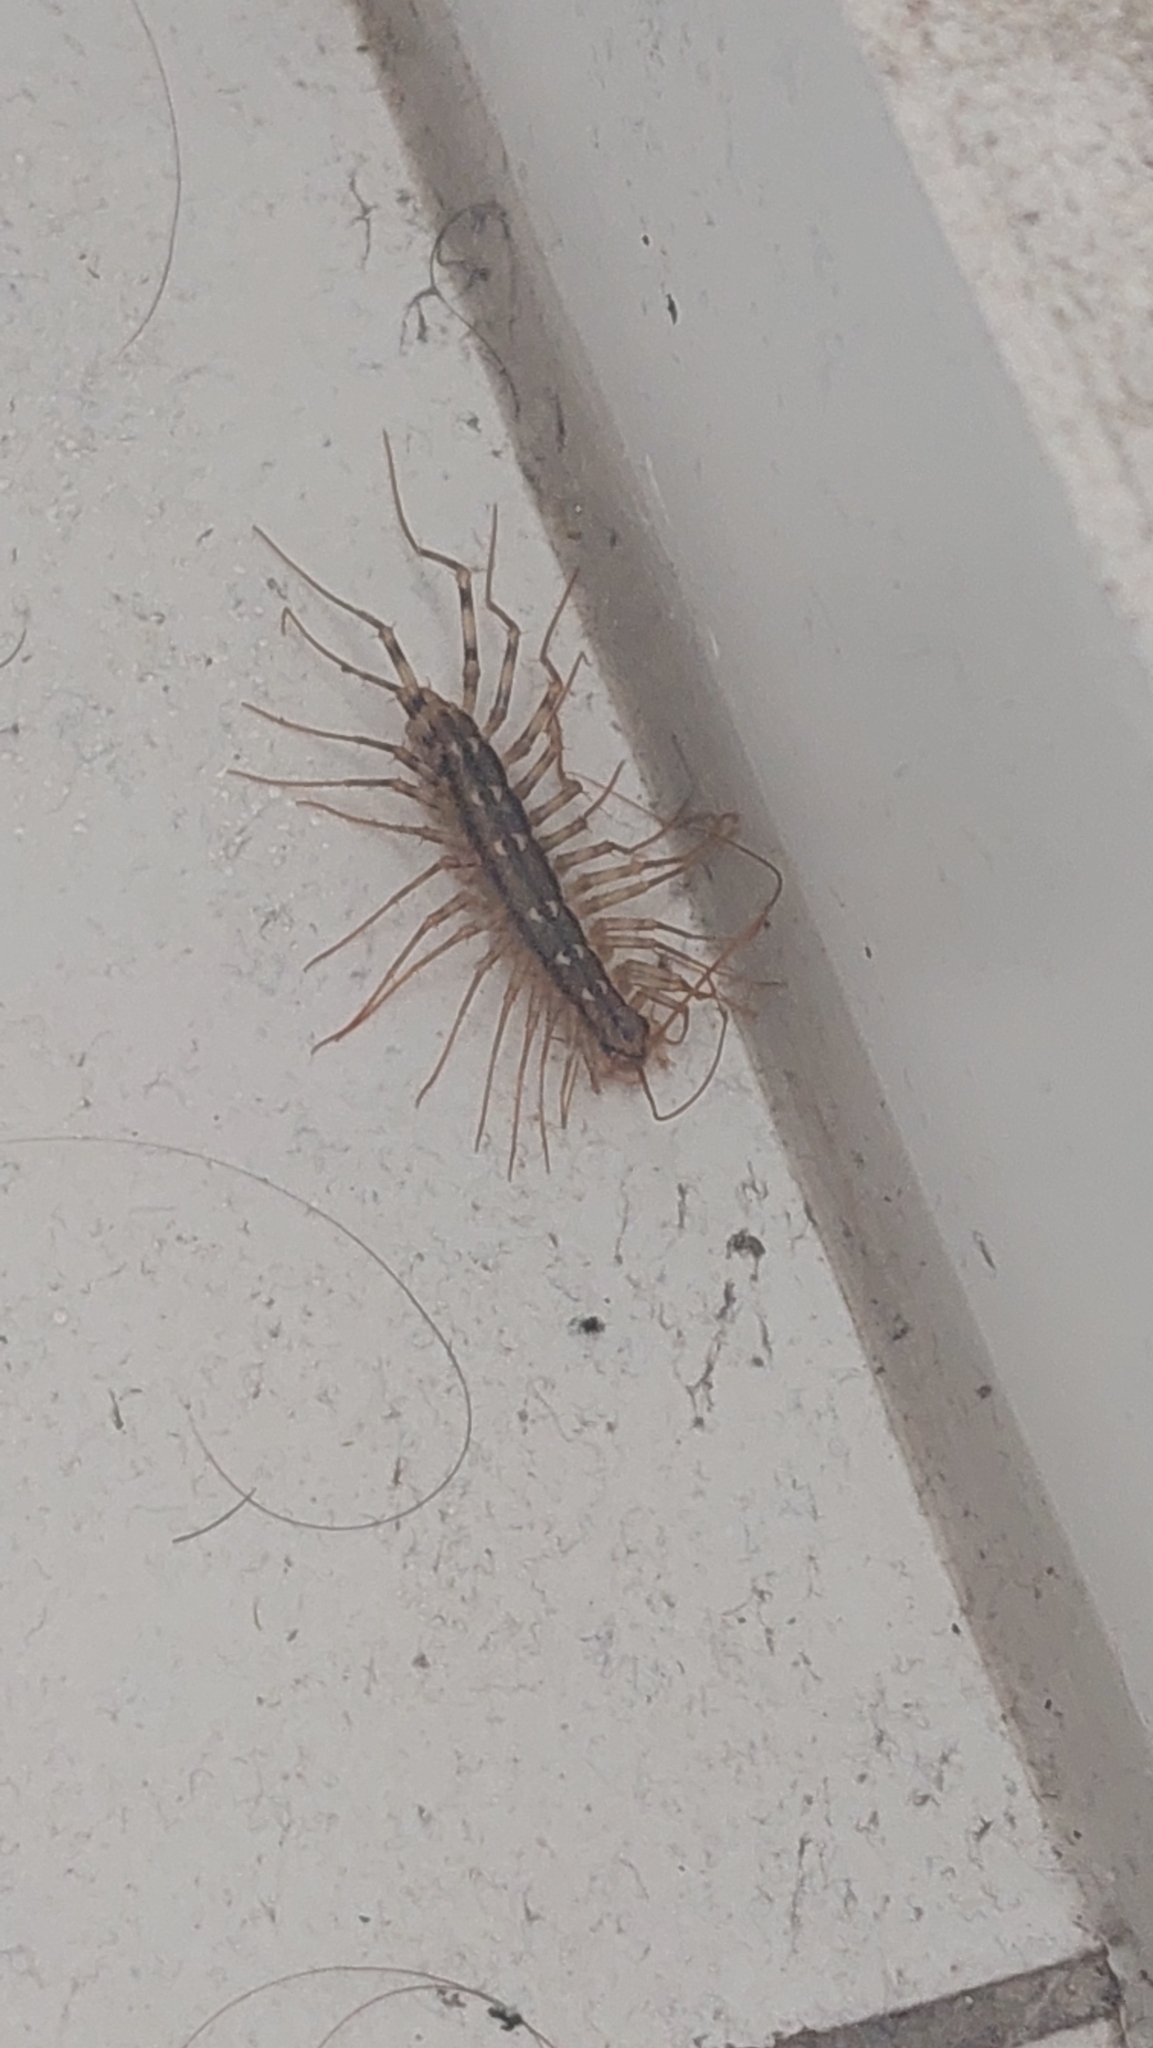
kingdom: Animalia
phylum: Arthropoda
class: Chilopoda
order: Scutigeromorpha
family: Scutigeridae
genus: Scutigera
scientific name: Scutigera coleoptrata
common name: House centipede
